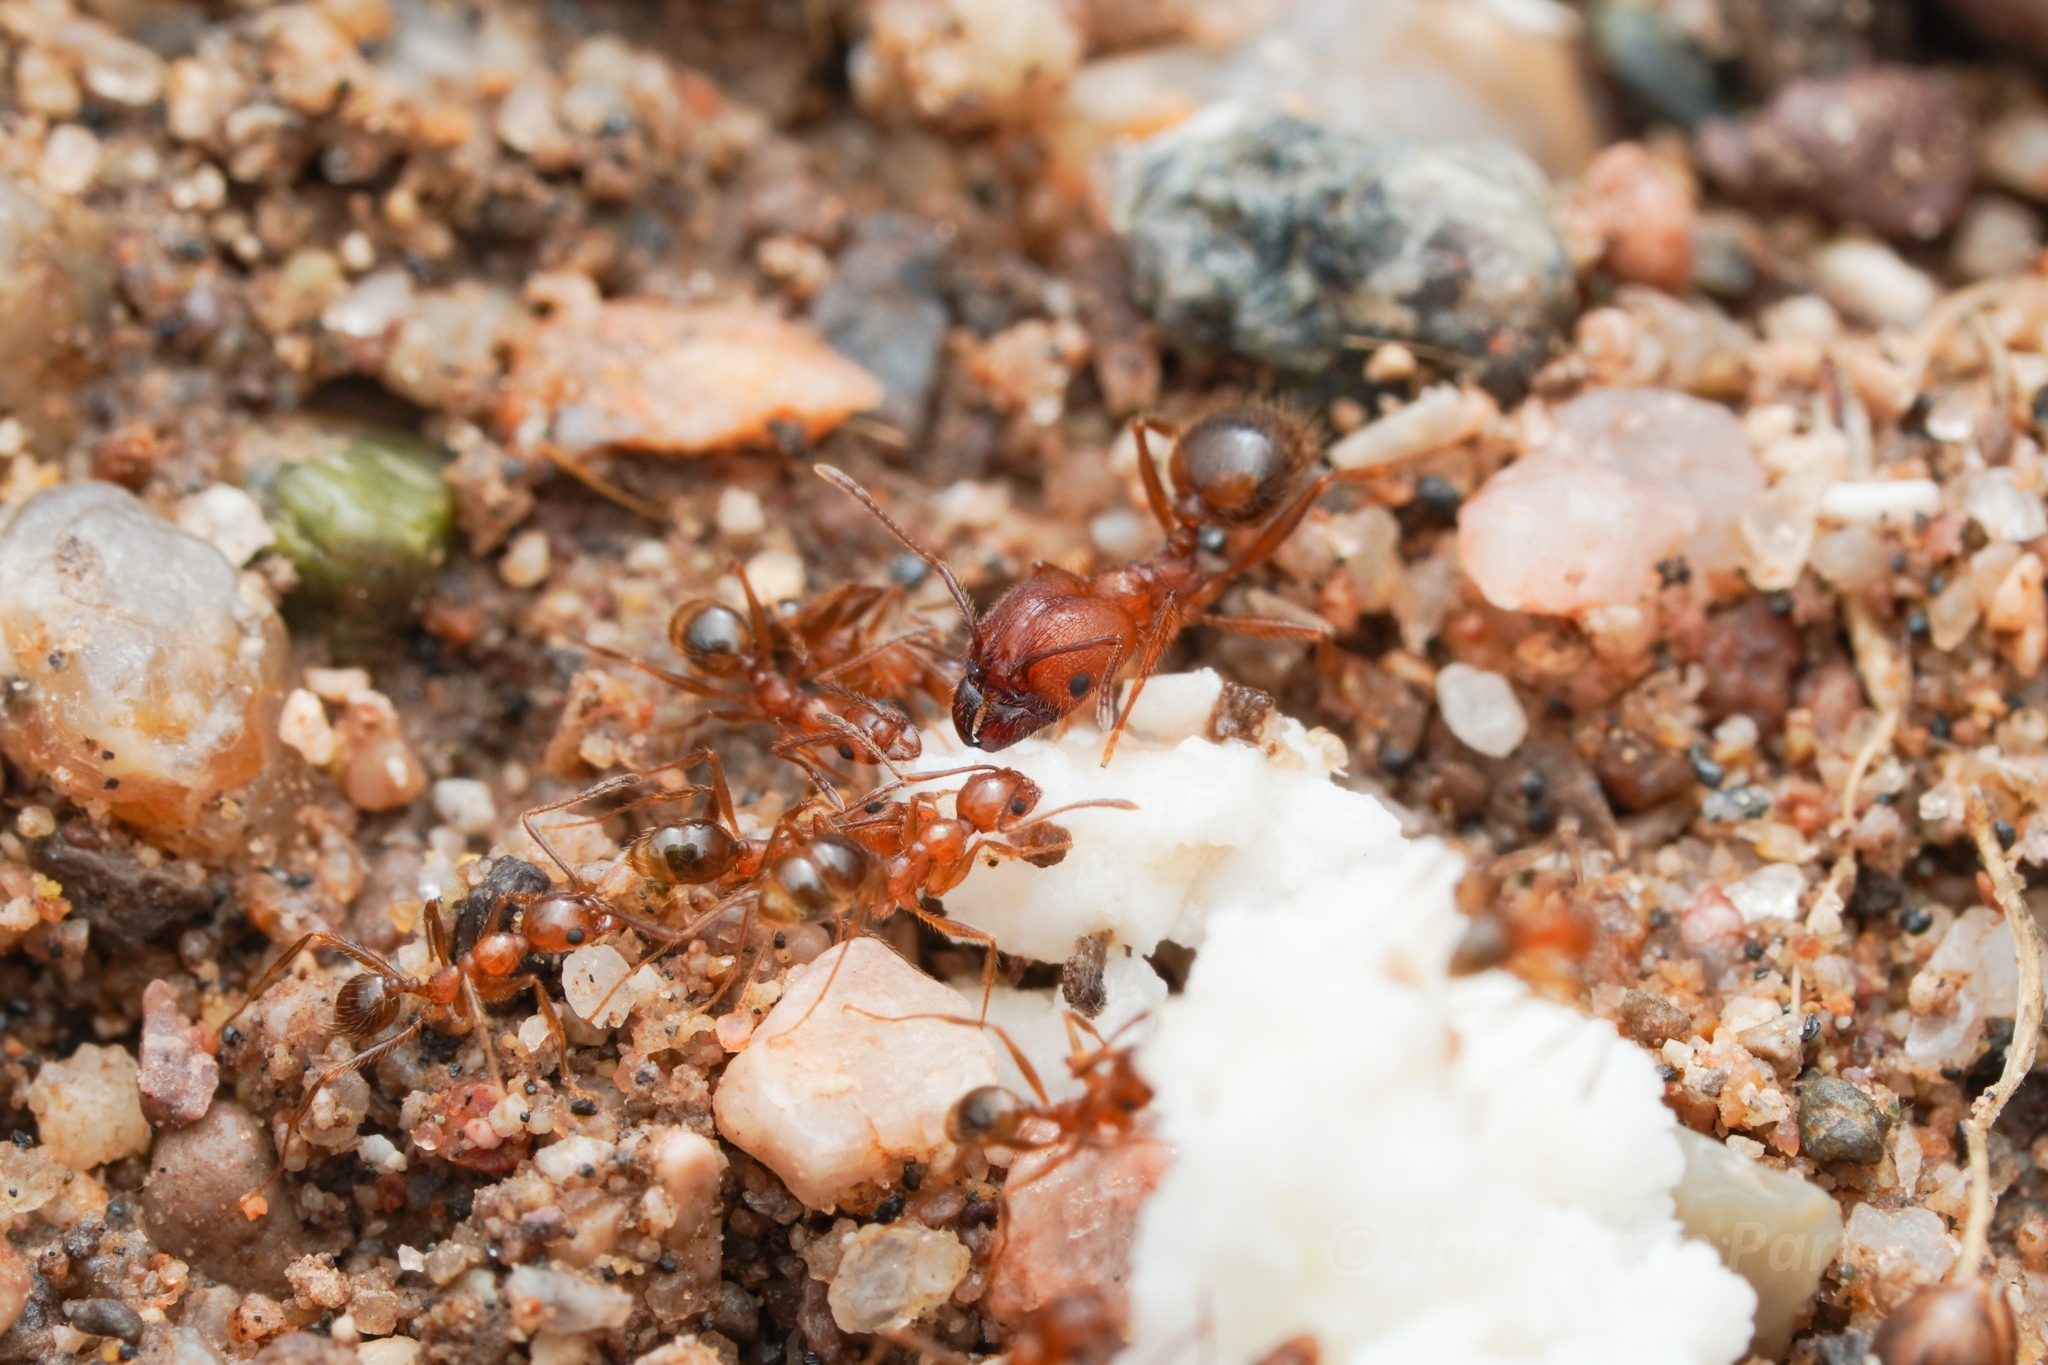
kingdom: Animalia
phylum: Arthropoda
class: Insecta
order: Hymenoptera
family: Formicidae
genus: Pheidole
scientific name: Pheidole hyatti
